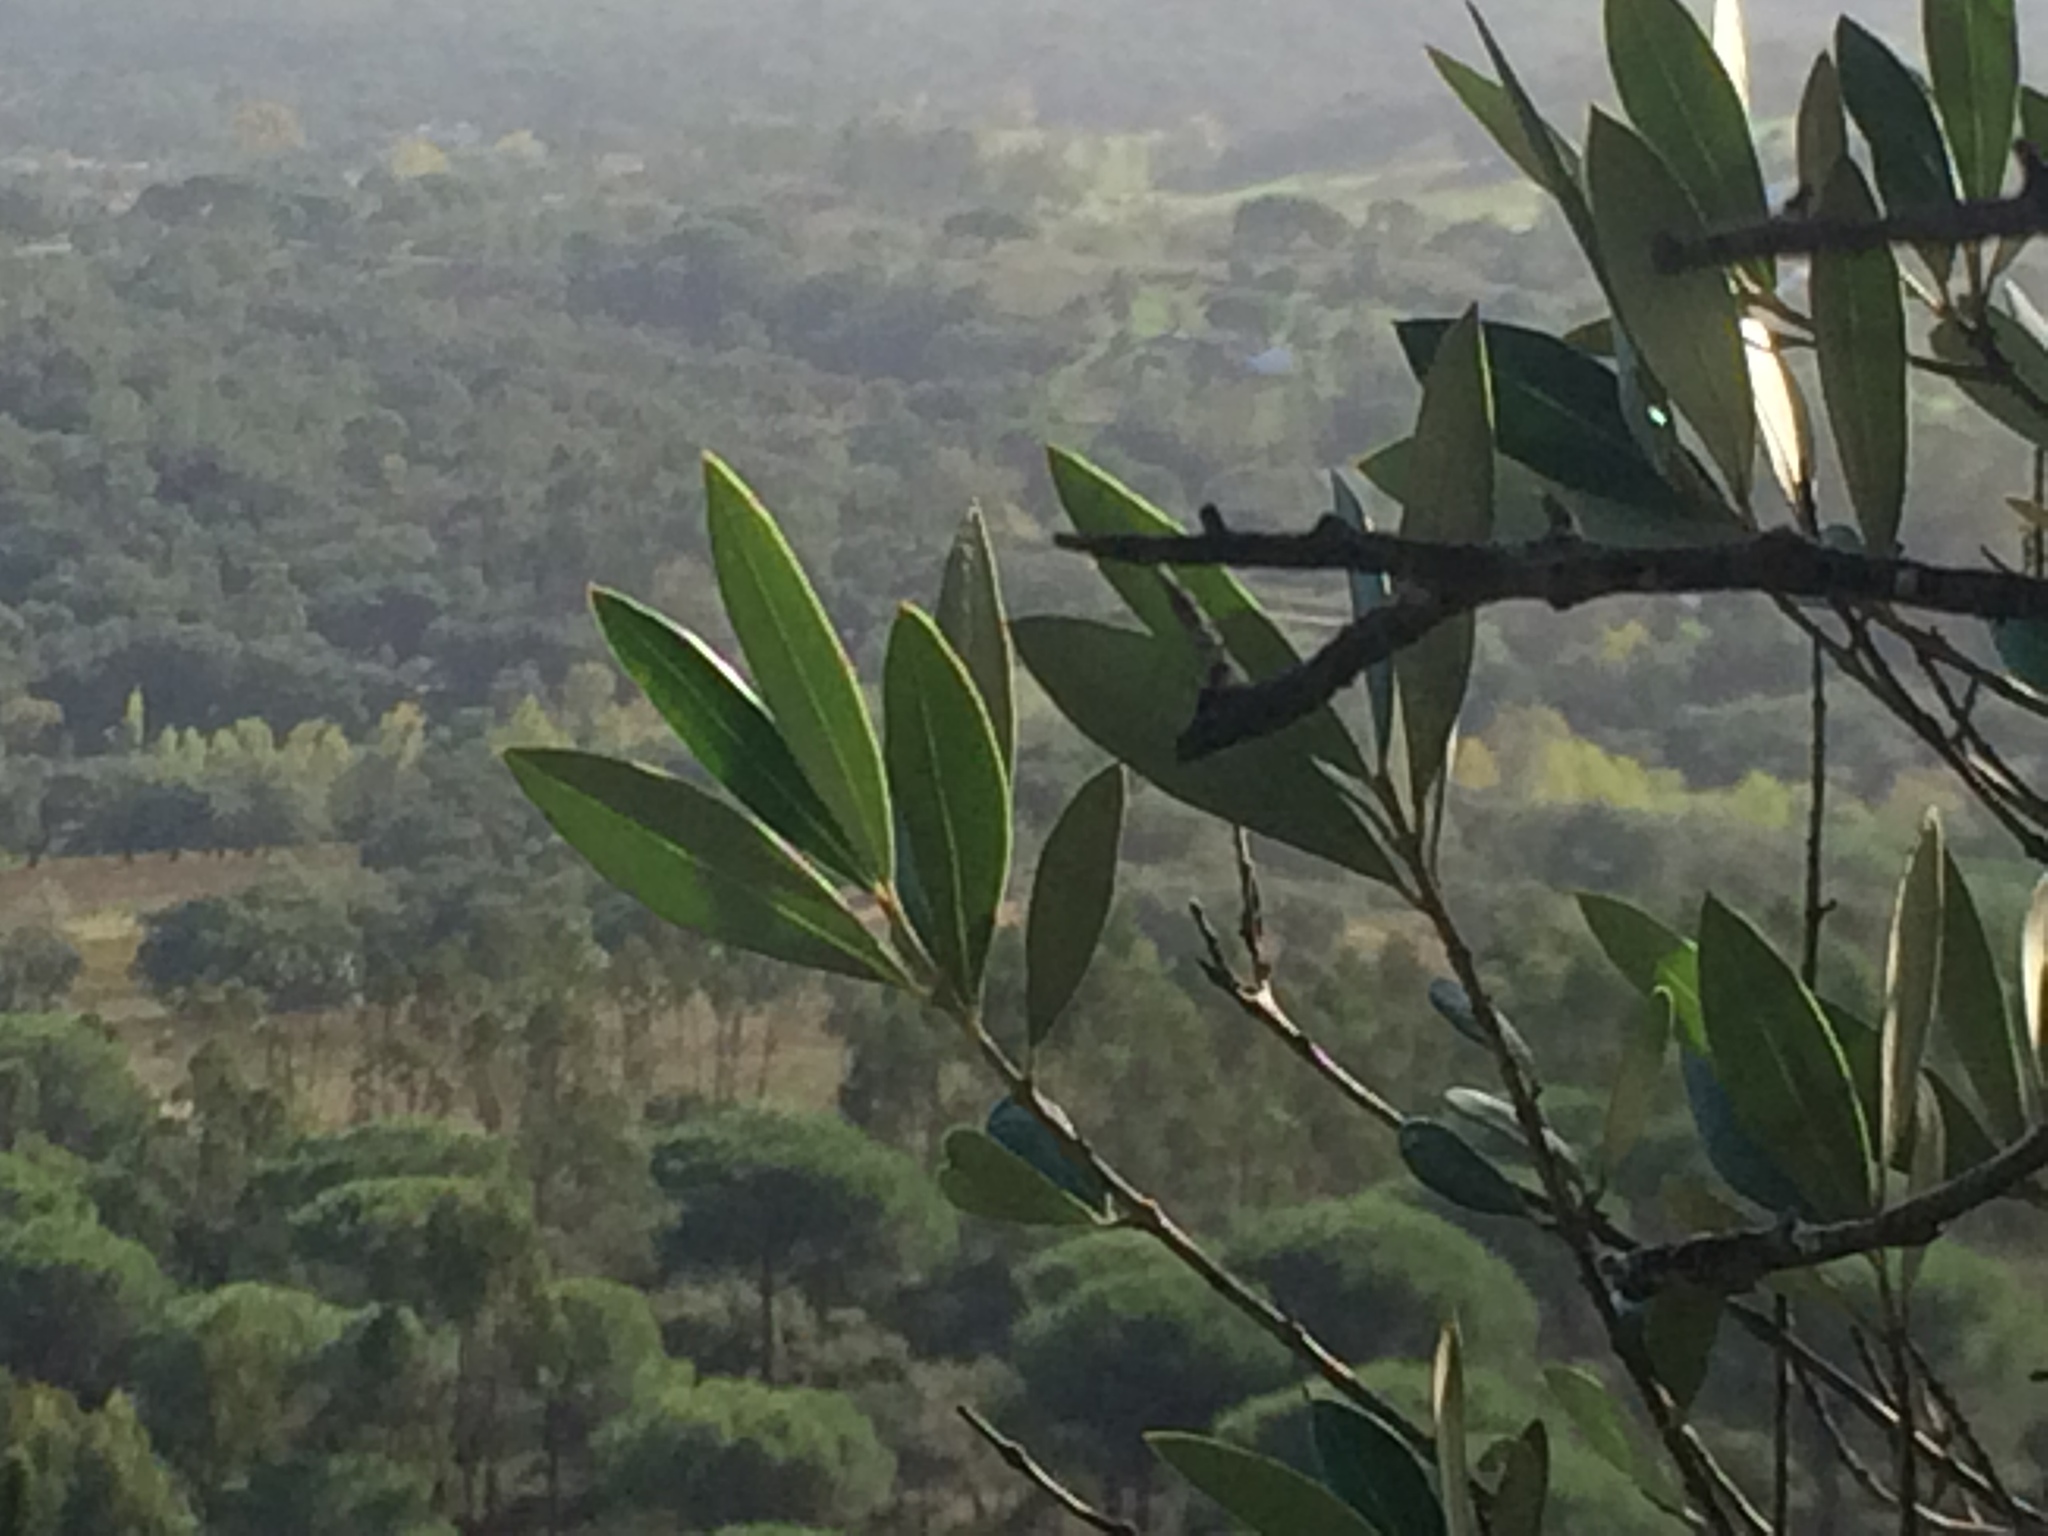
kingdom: Plantae
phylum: Tracheophyta
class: Magnoliopsida
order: Lamiales
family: Oleaceae
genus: Olea
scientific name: Olea europaea
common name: Olive
